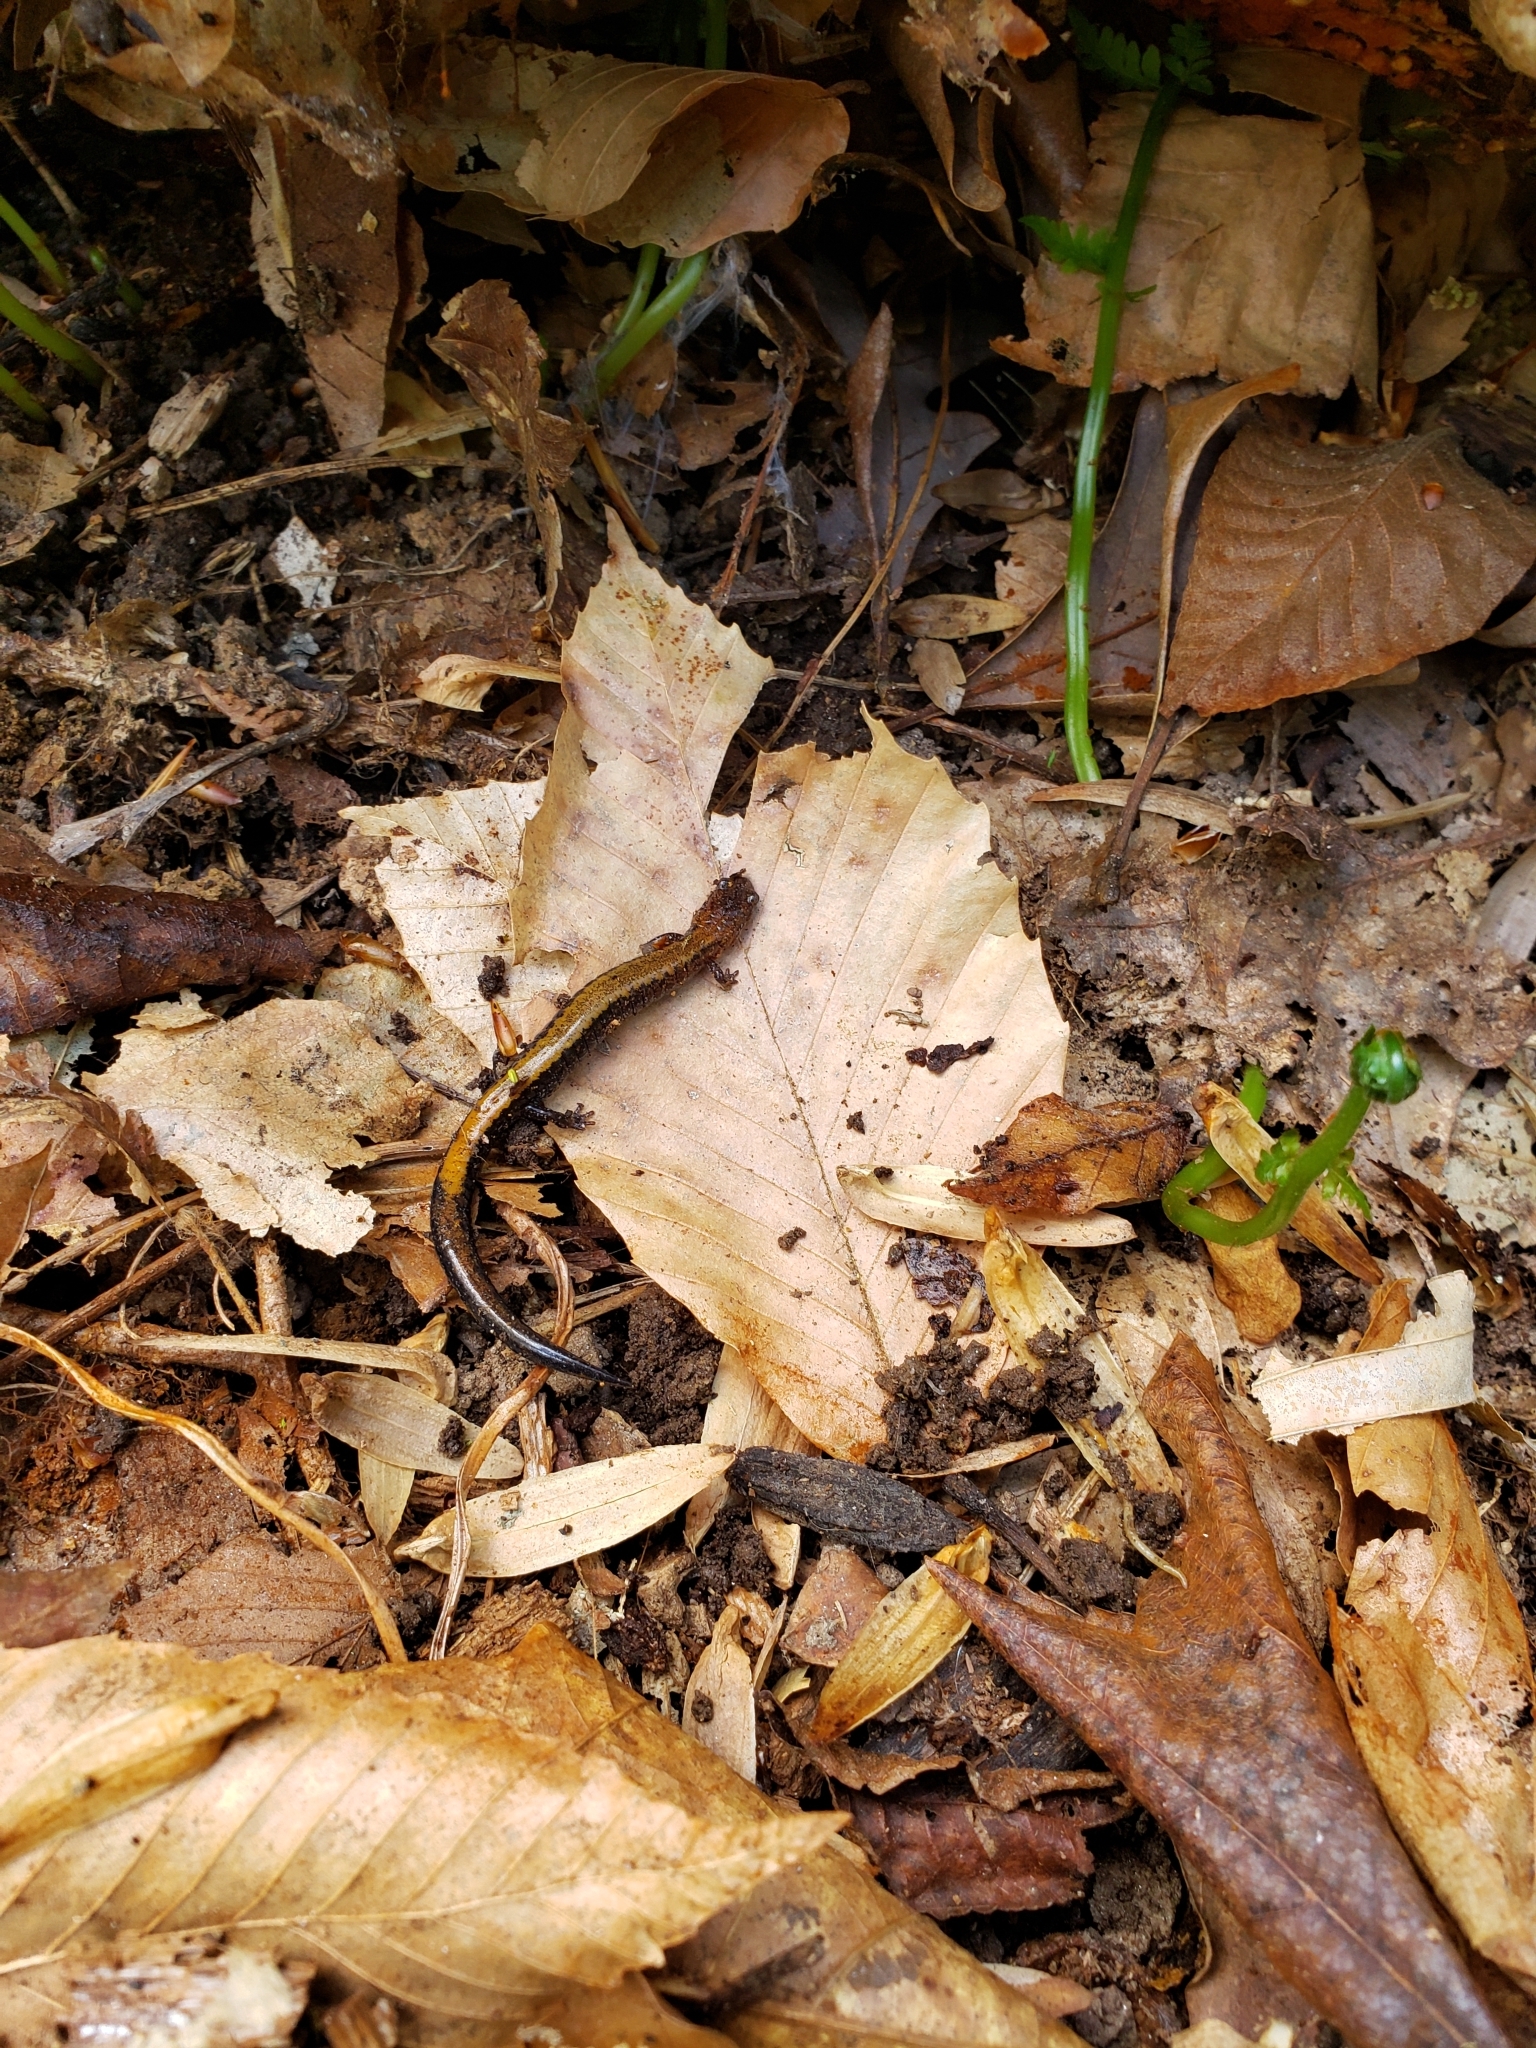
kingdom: Animalia
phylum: Chordata
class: Amphibia
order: Caudata
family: Plethodontidae
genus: Plethodon
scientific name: Plethodon cinereus
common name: Redback salamander
